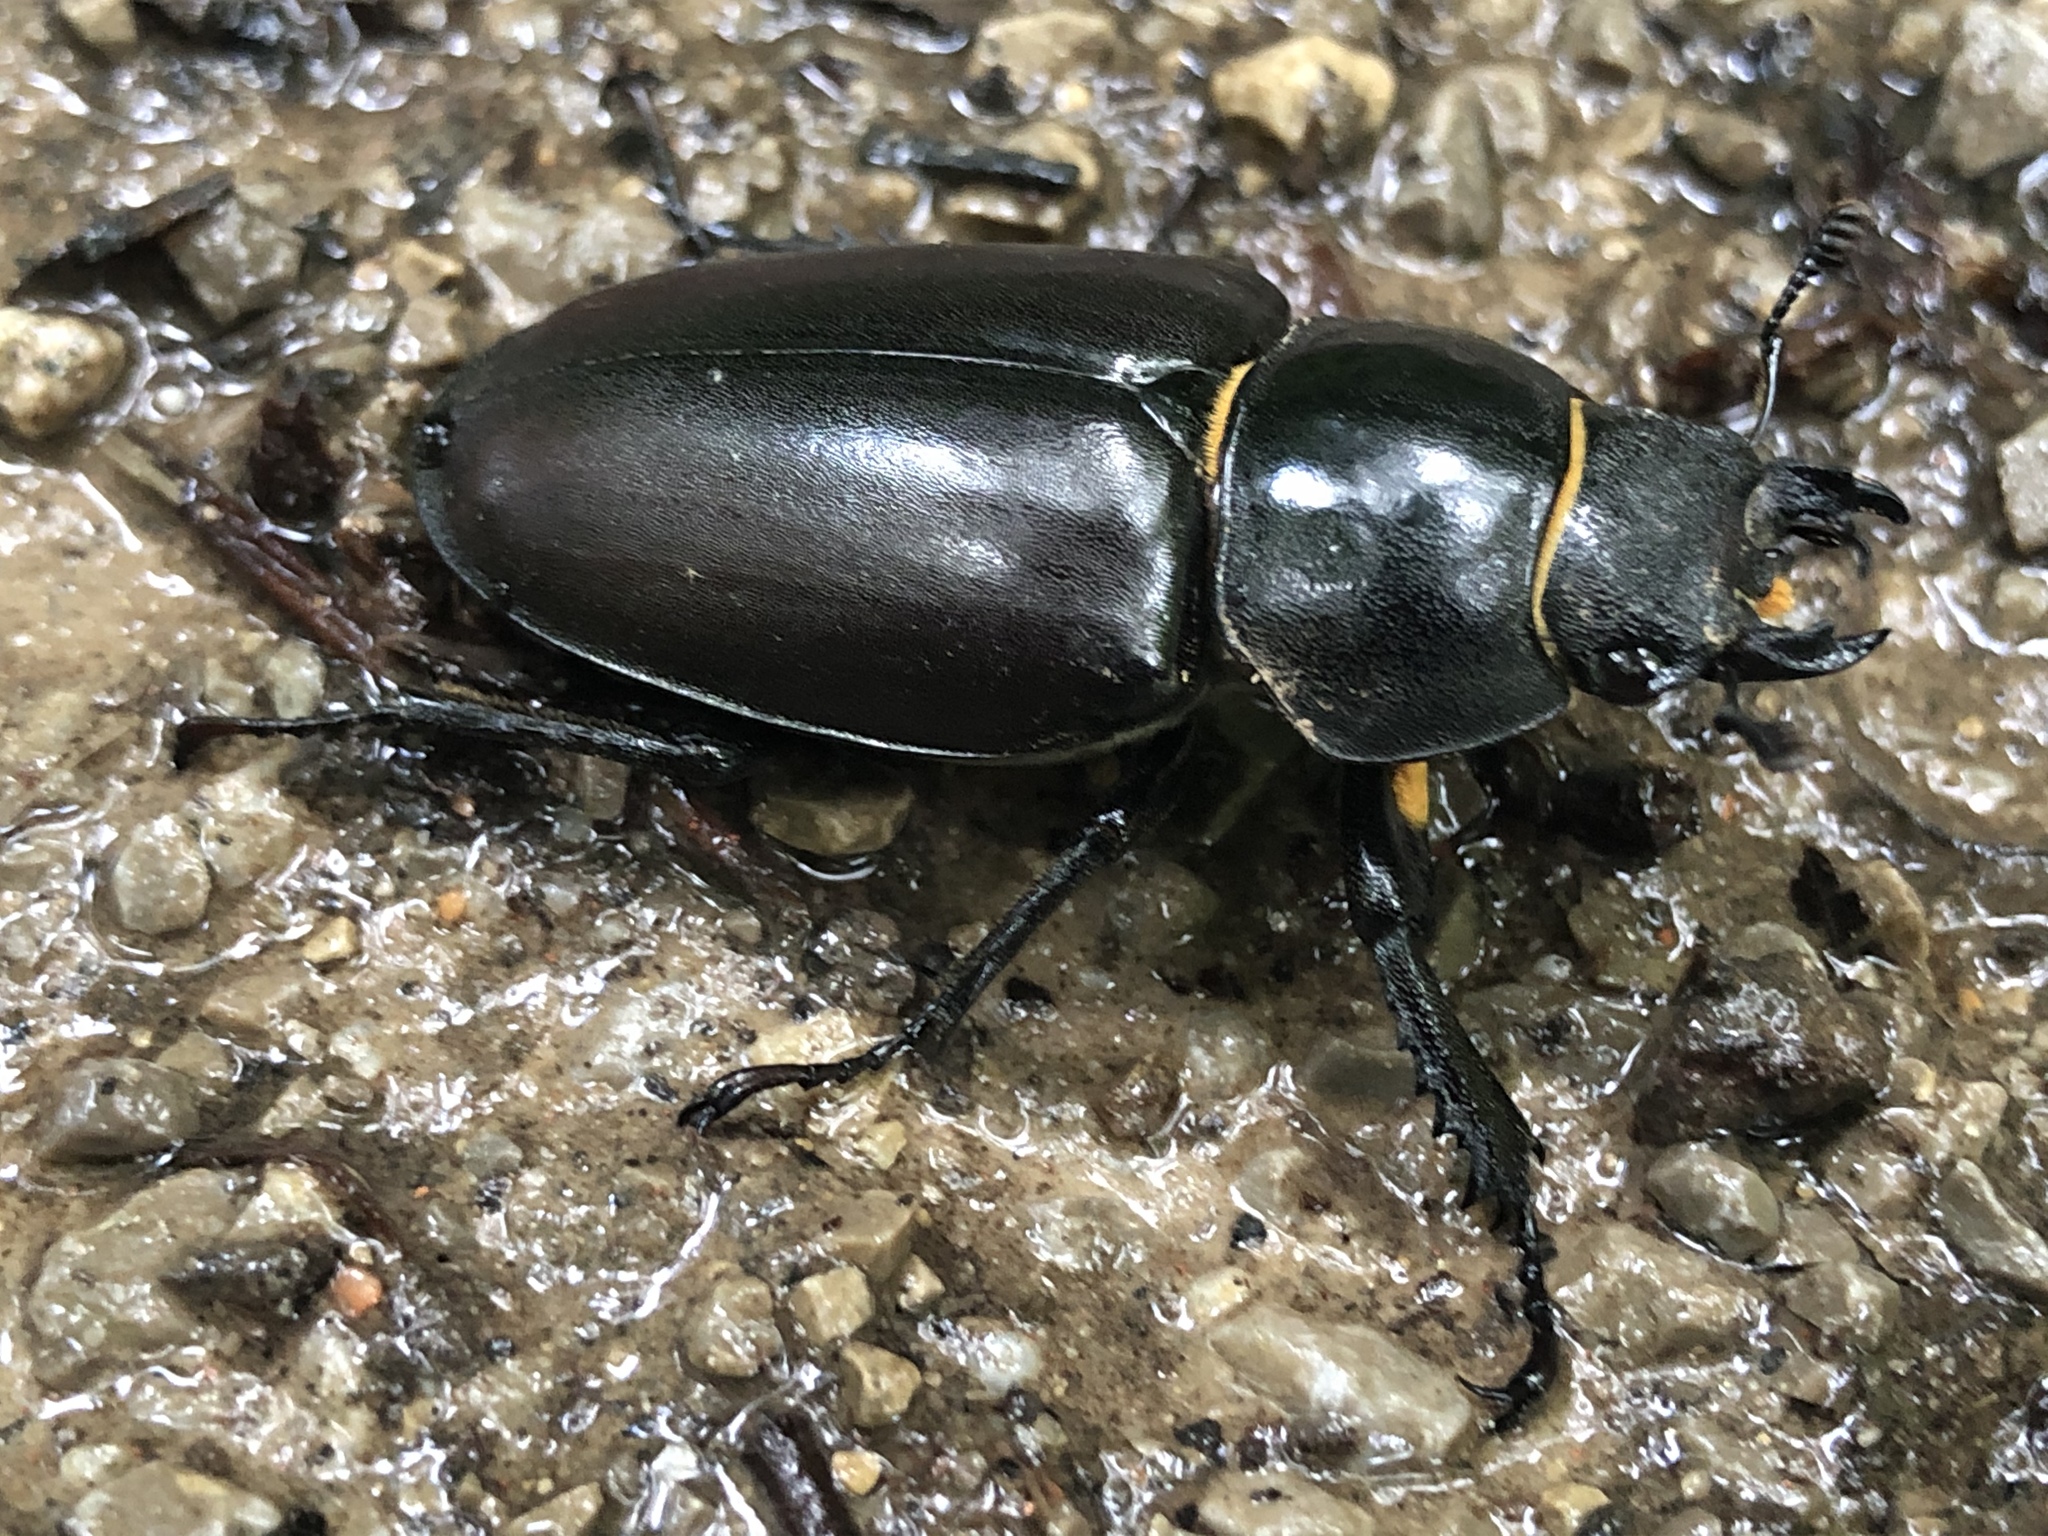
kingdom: Animalia
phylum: Arthropoda
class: Insecta
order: Coleoptera
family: Lucanidae
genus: Lucanus
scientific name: Lucanus cervus
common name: Stag beetle
